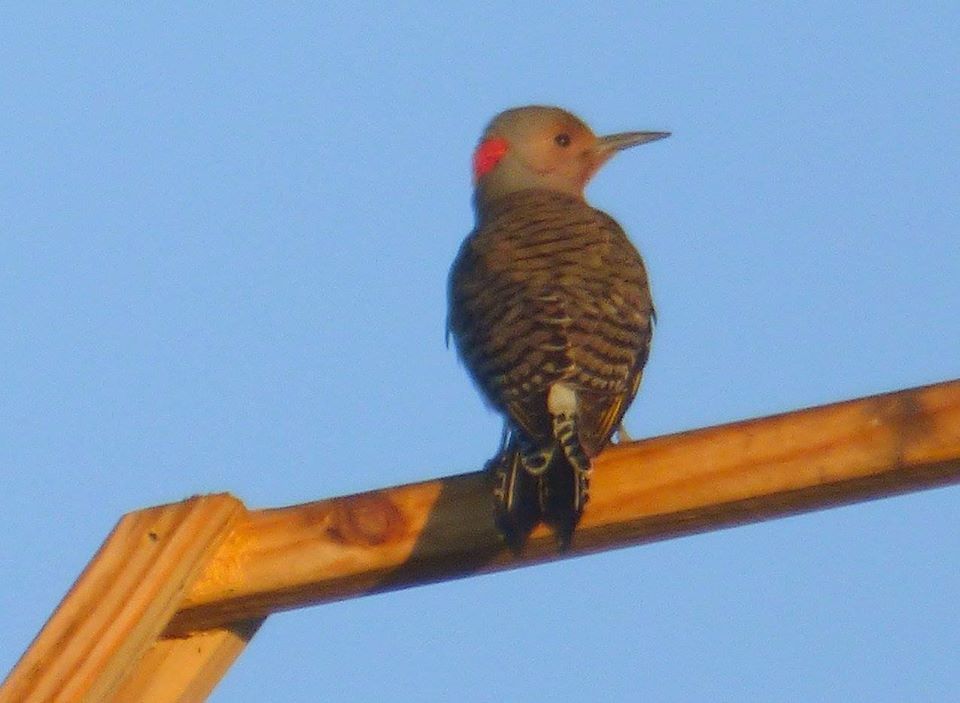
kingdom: Animalia
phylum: Chordata
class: Aves
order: Piciformes
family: Picidae
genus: Colaptes
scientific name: Colaptes auratus
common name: Northern flicker
